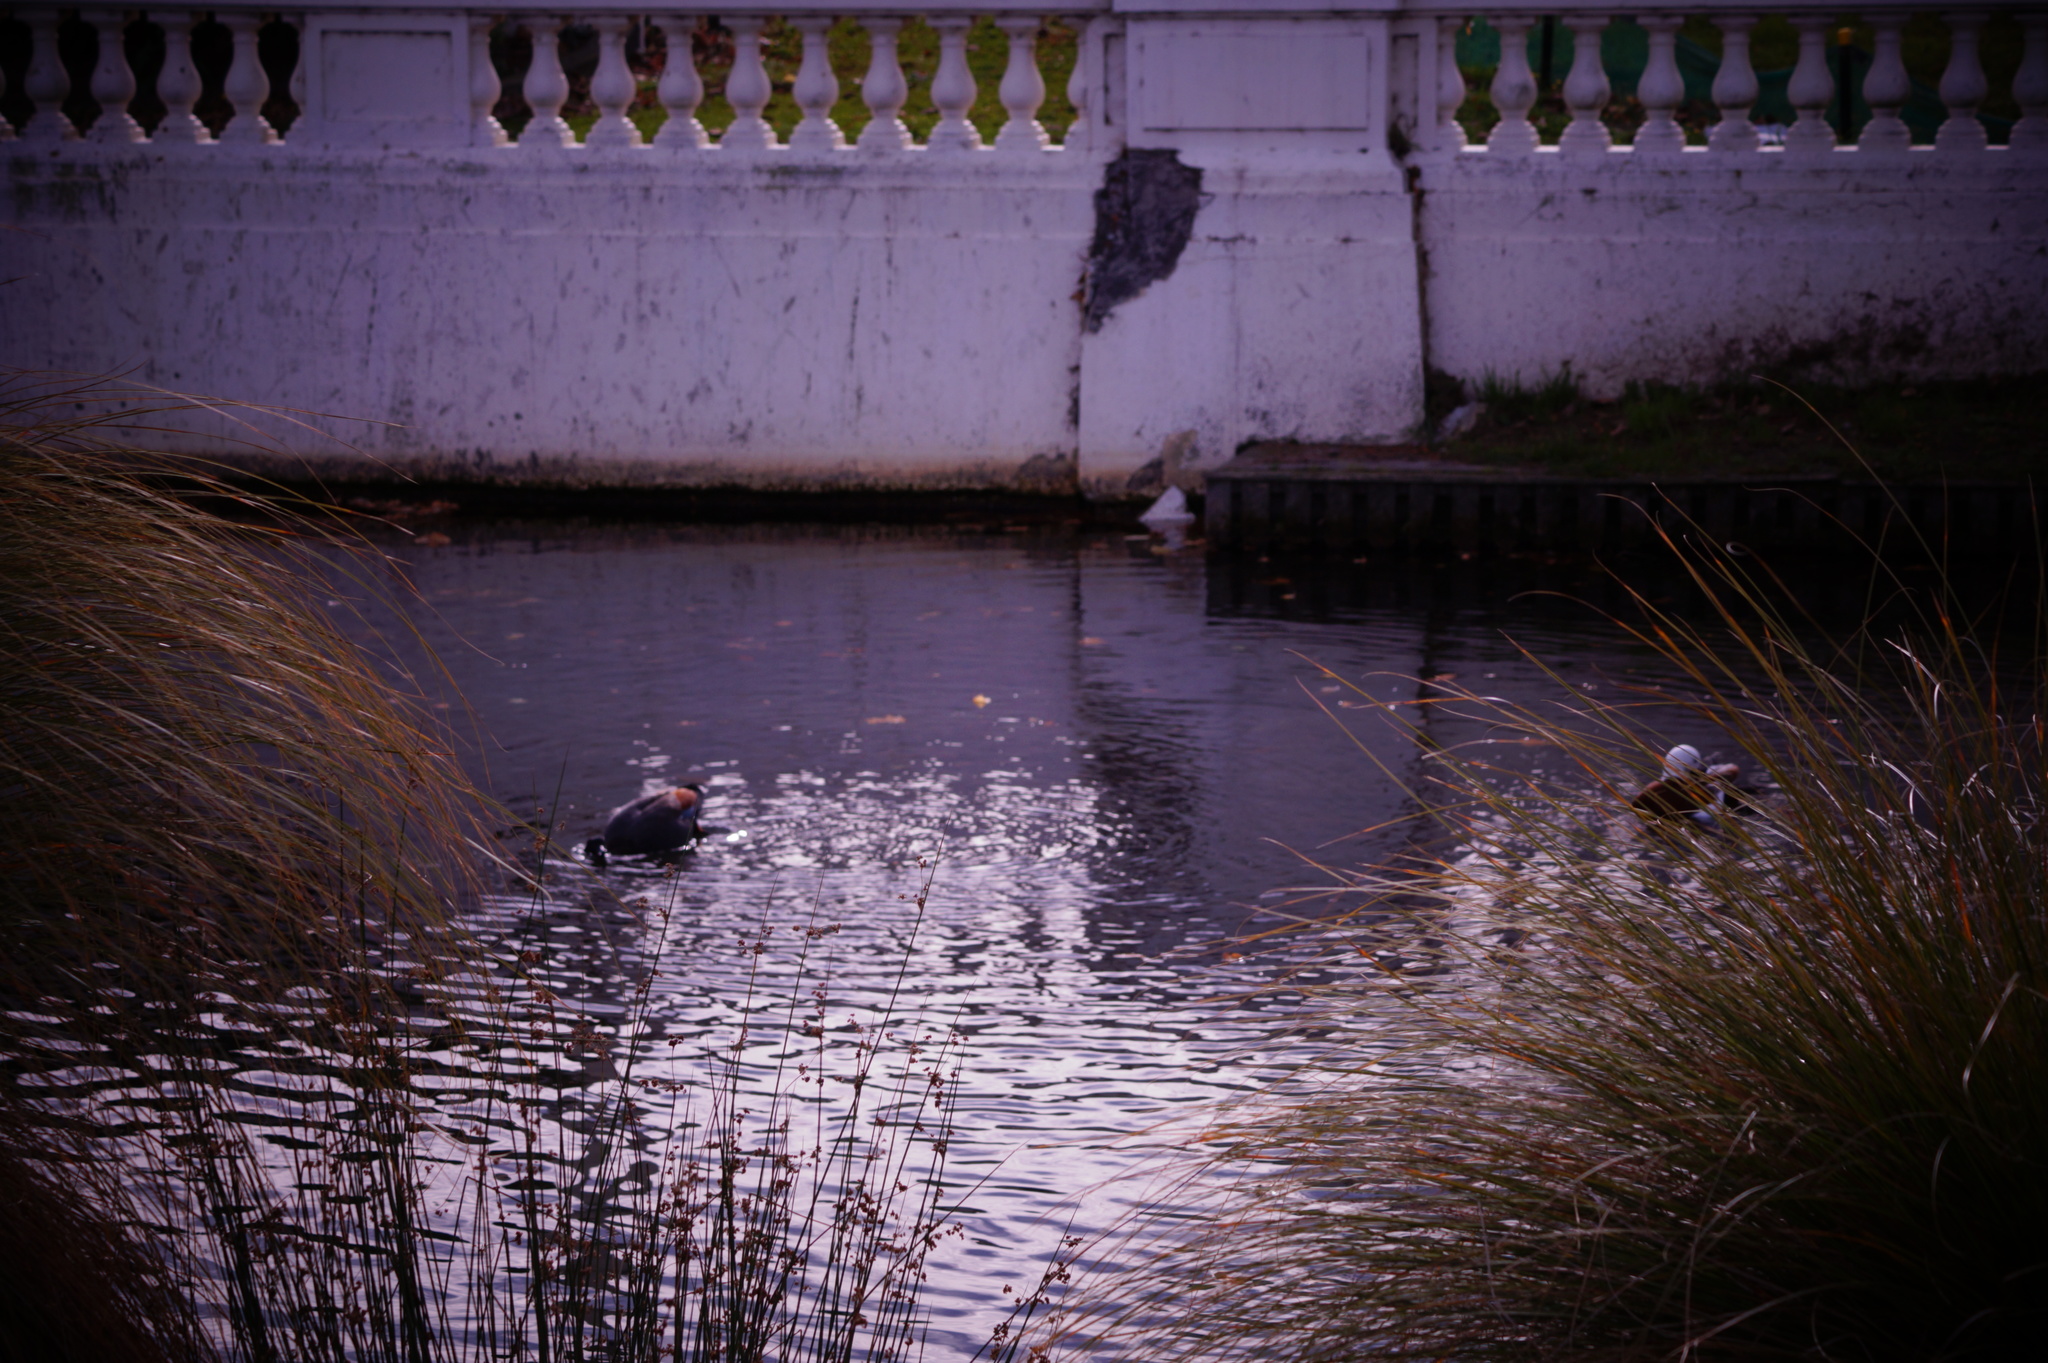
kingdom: Animalia
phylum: Chordata
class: Aves
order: Anseriformes
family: Anatidae
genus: Tadorna
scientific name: Tadorna variegata
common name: Paradise shelduck
